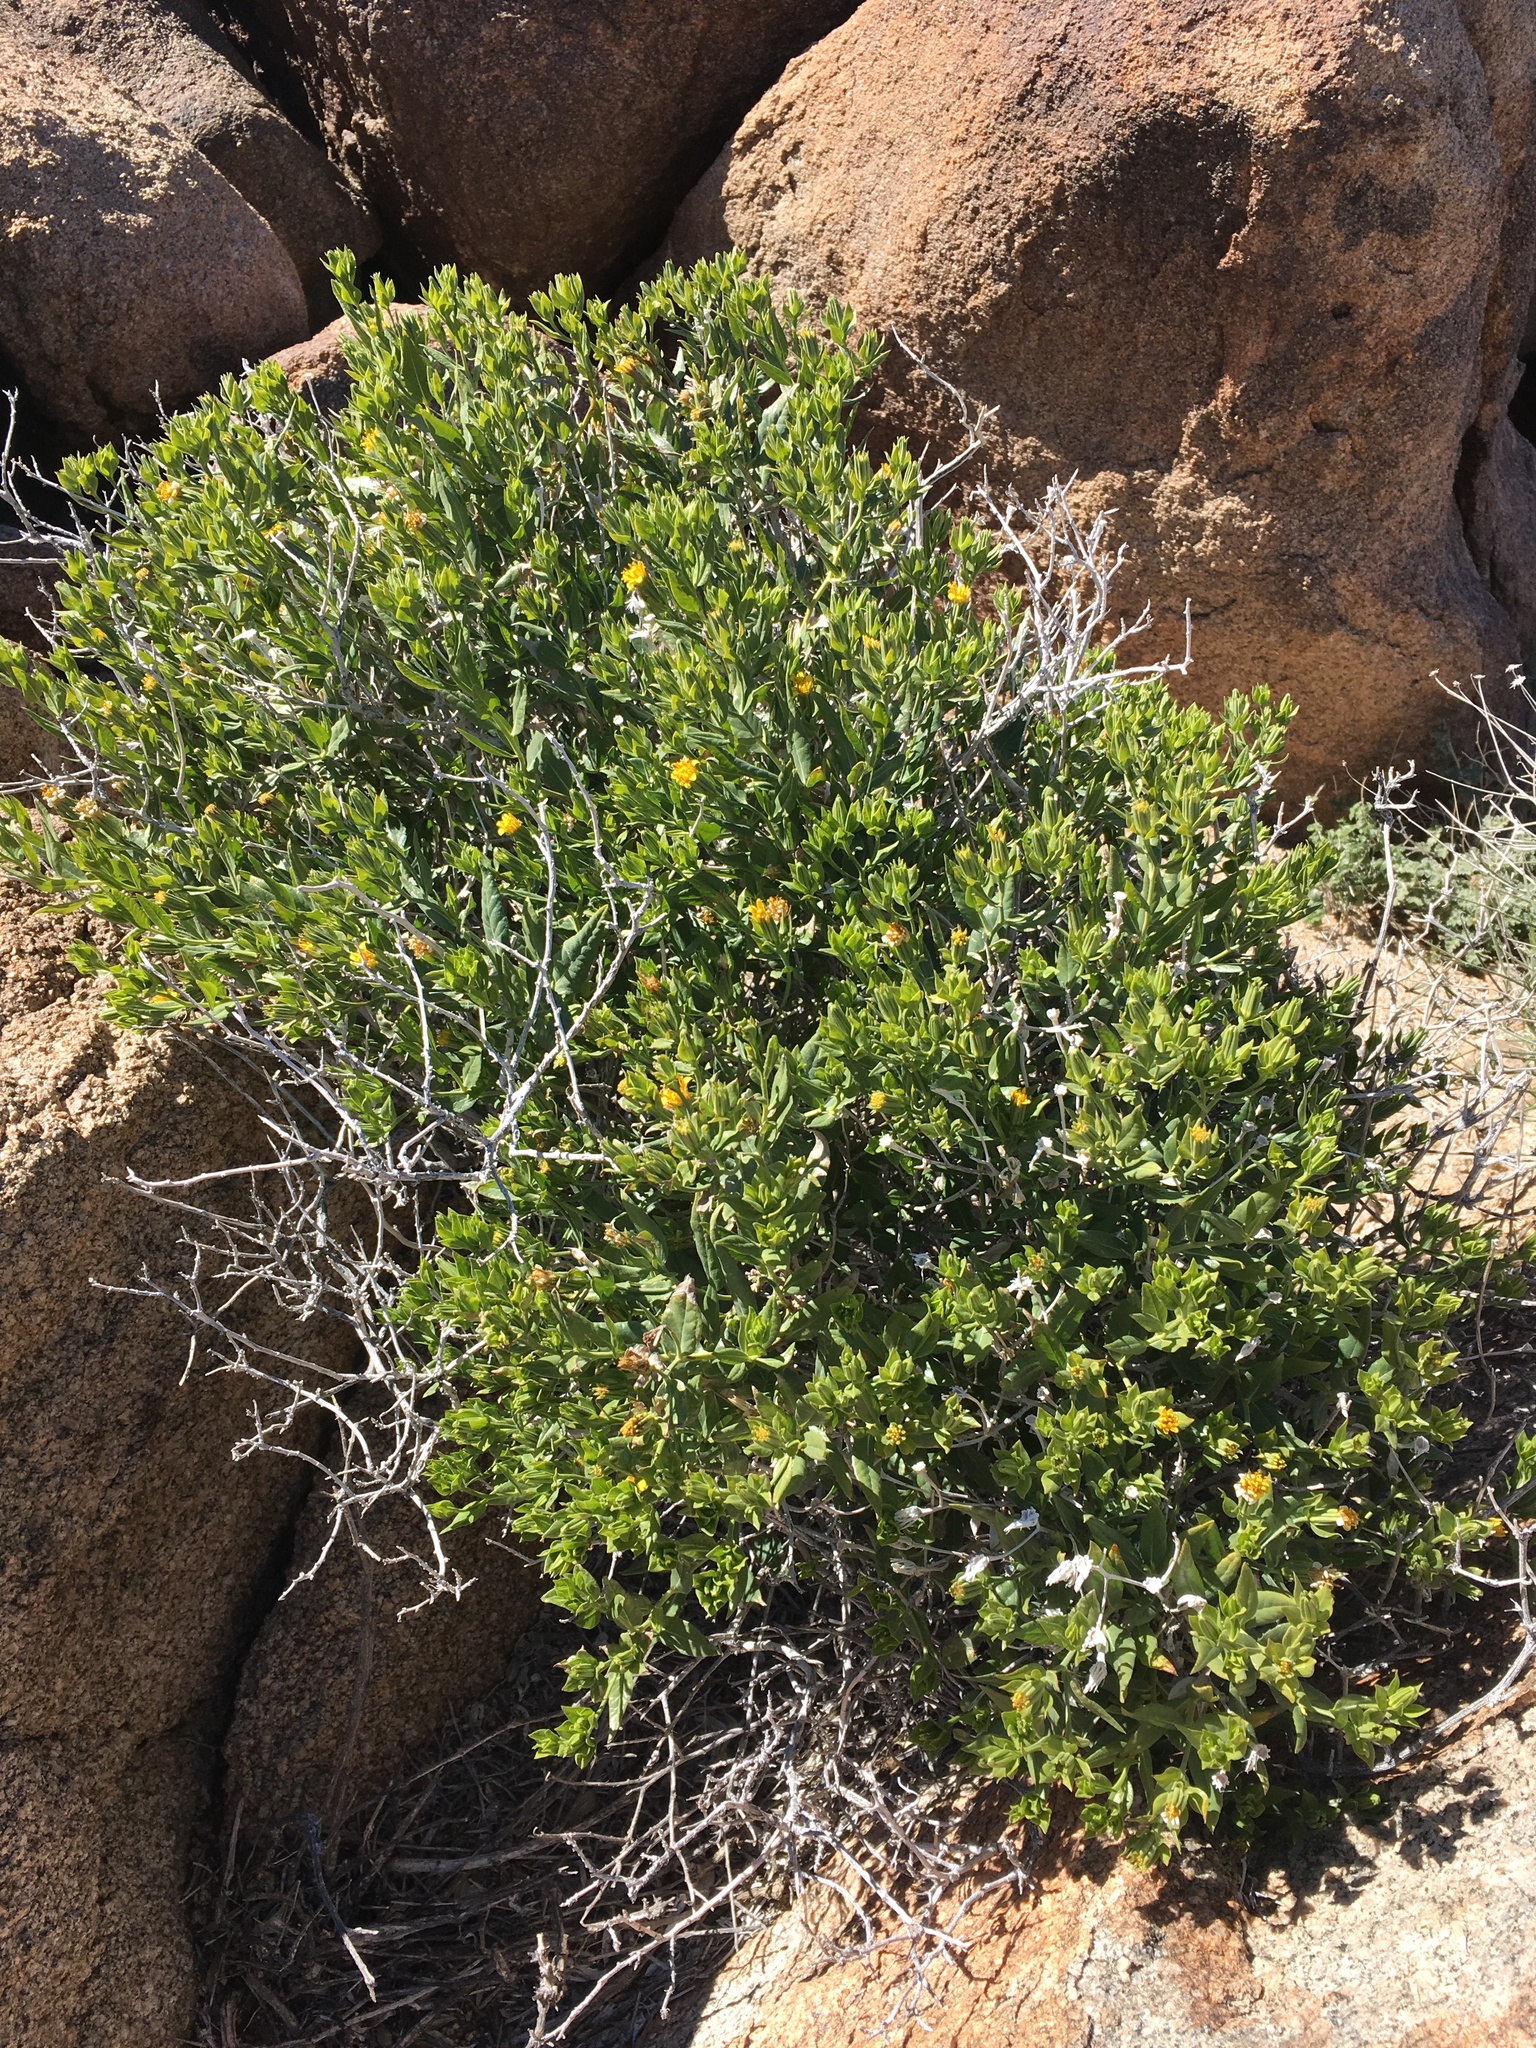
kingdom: Plantae
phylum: Tracheophyta
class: Magnoliopsida
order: Asterales
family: Asteraceae
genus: Trixis
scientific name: Trixis californica
